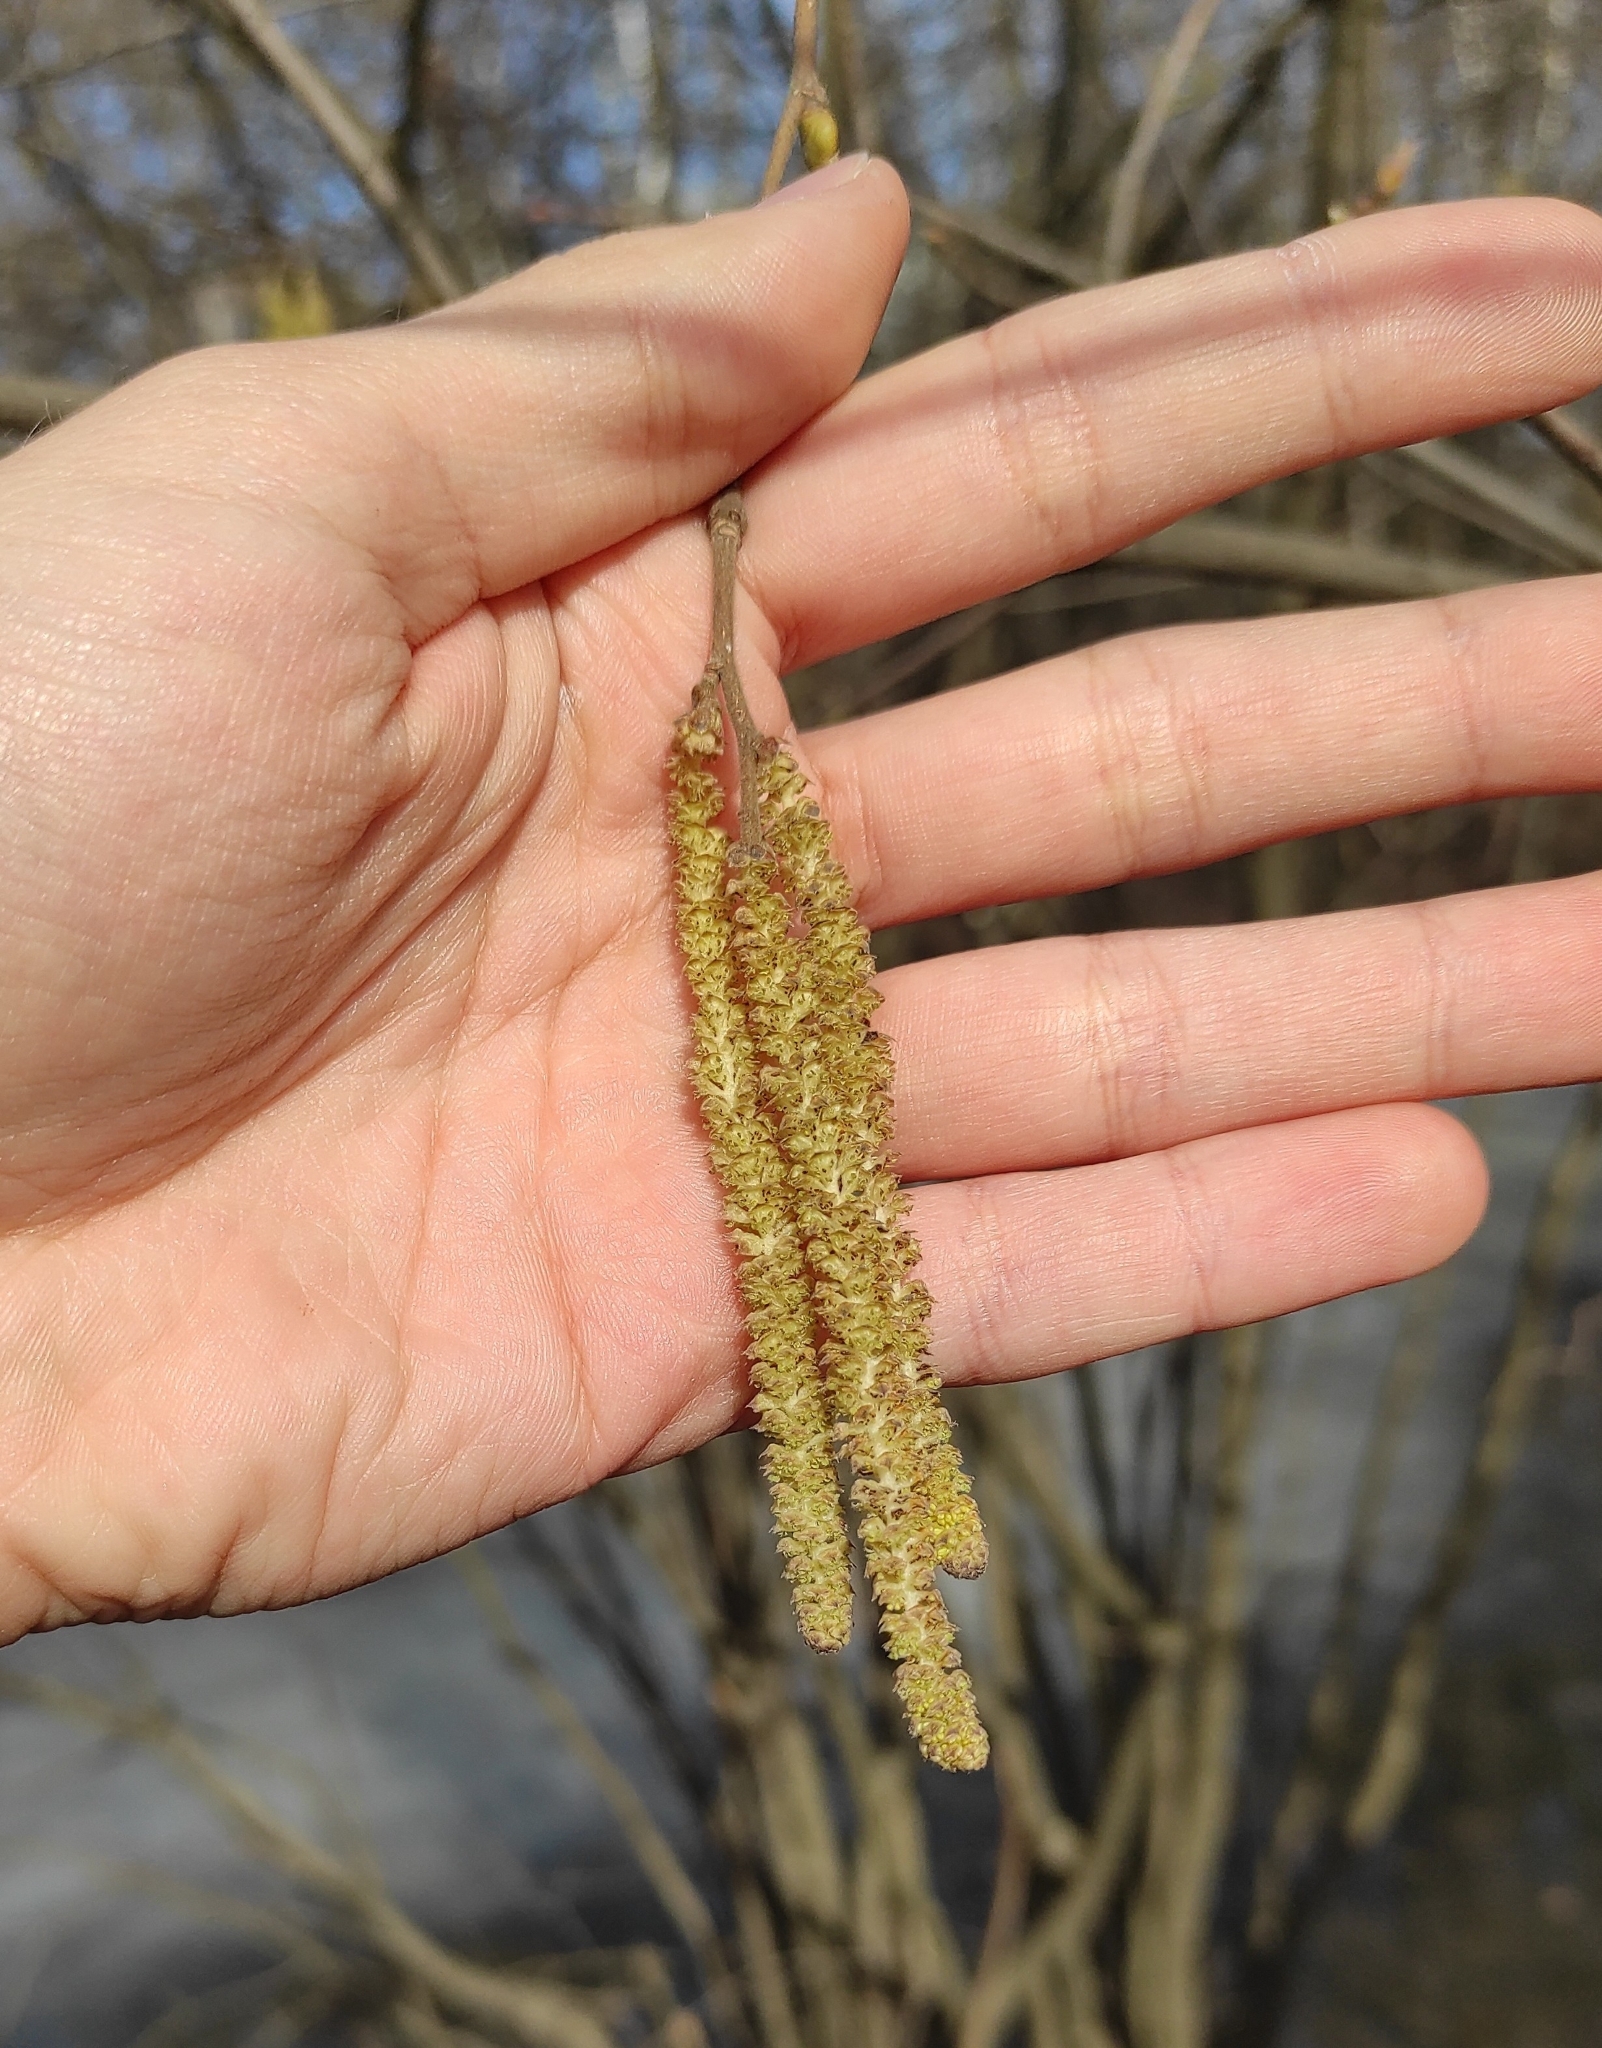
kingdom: Plantae
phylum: Tracheophyta
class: Magnoliopsida
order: Fagales
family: Betulaceae
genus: Corylus
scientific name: Corylus avellana
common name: European hazel
